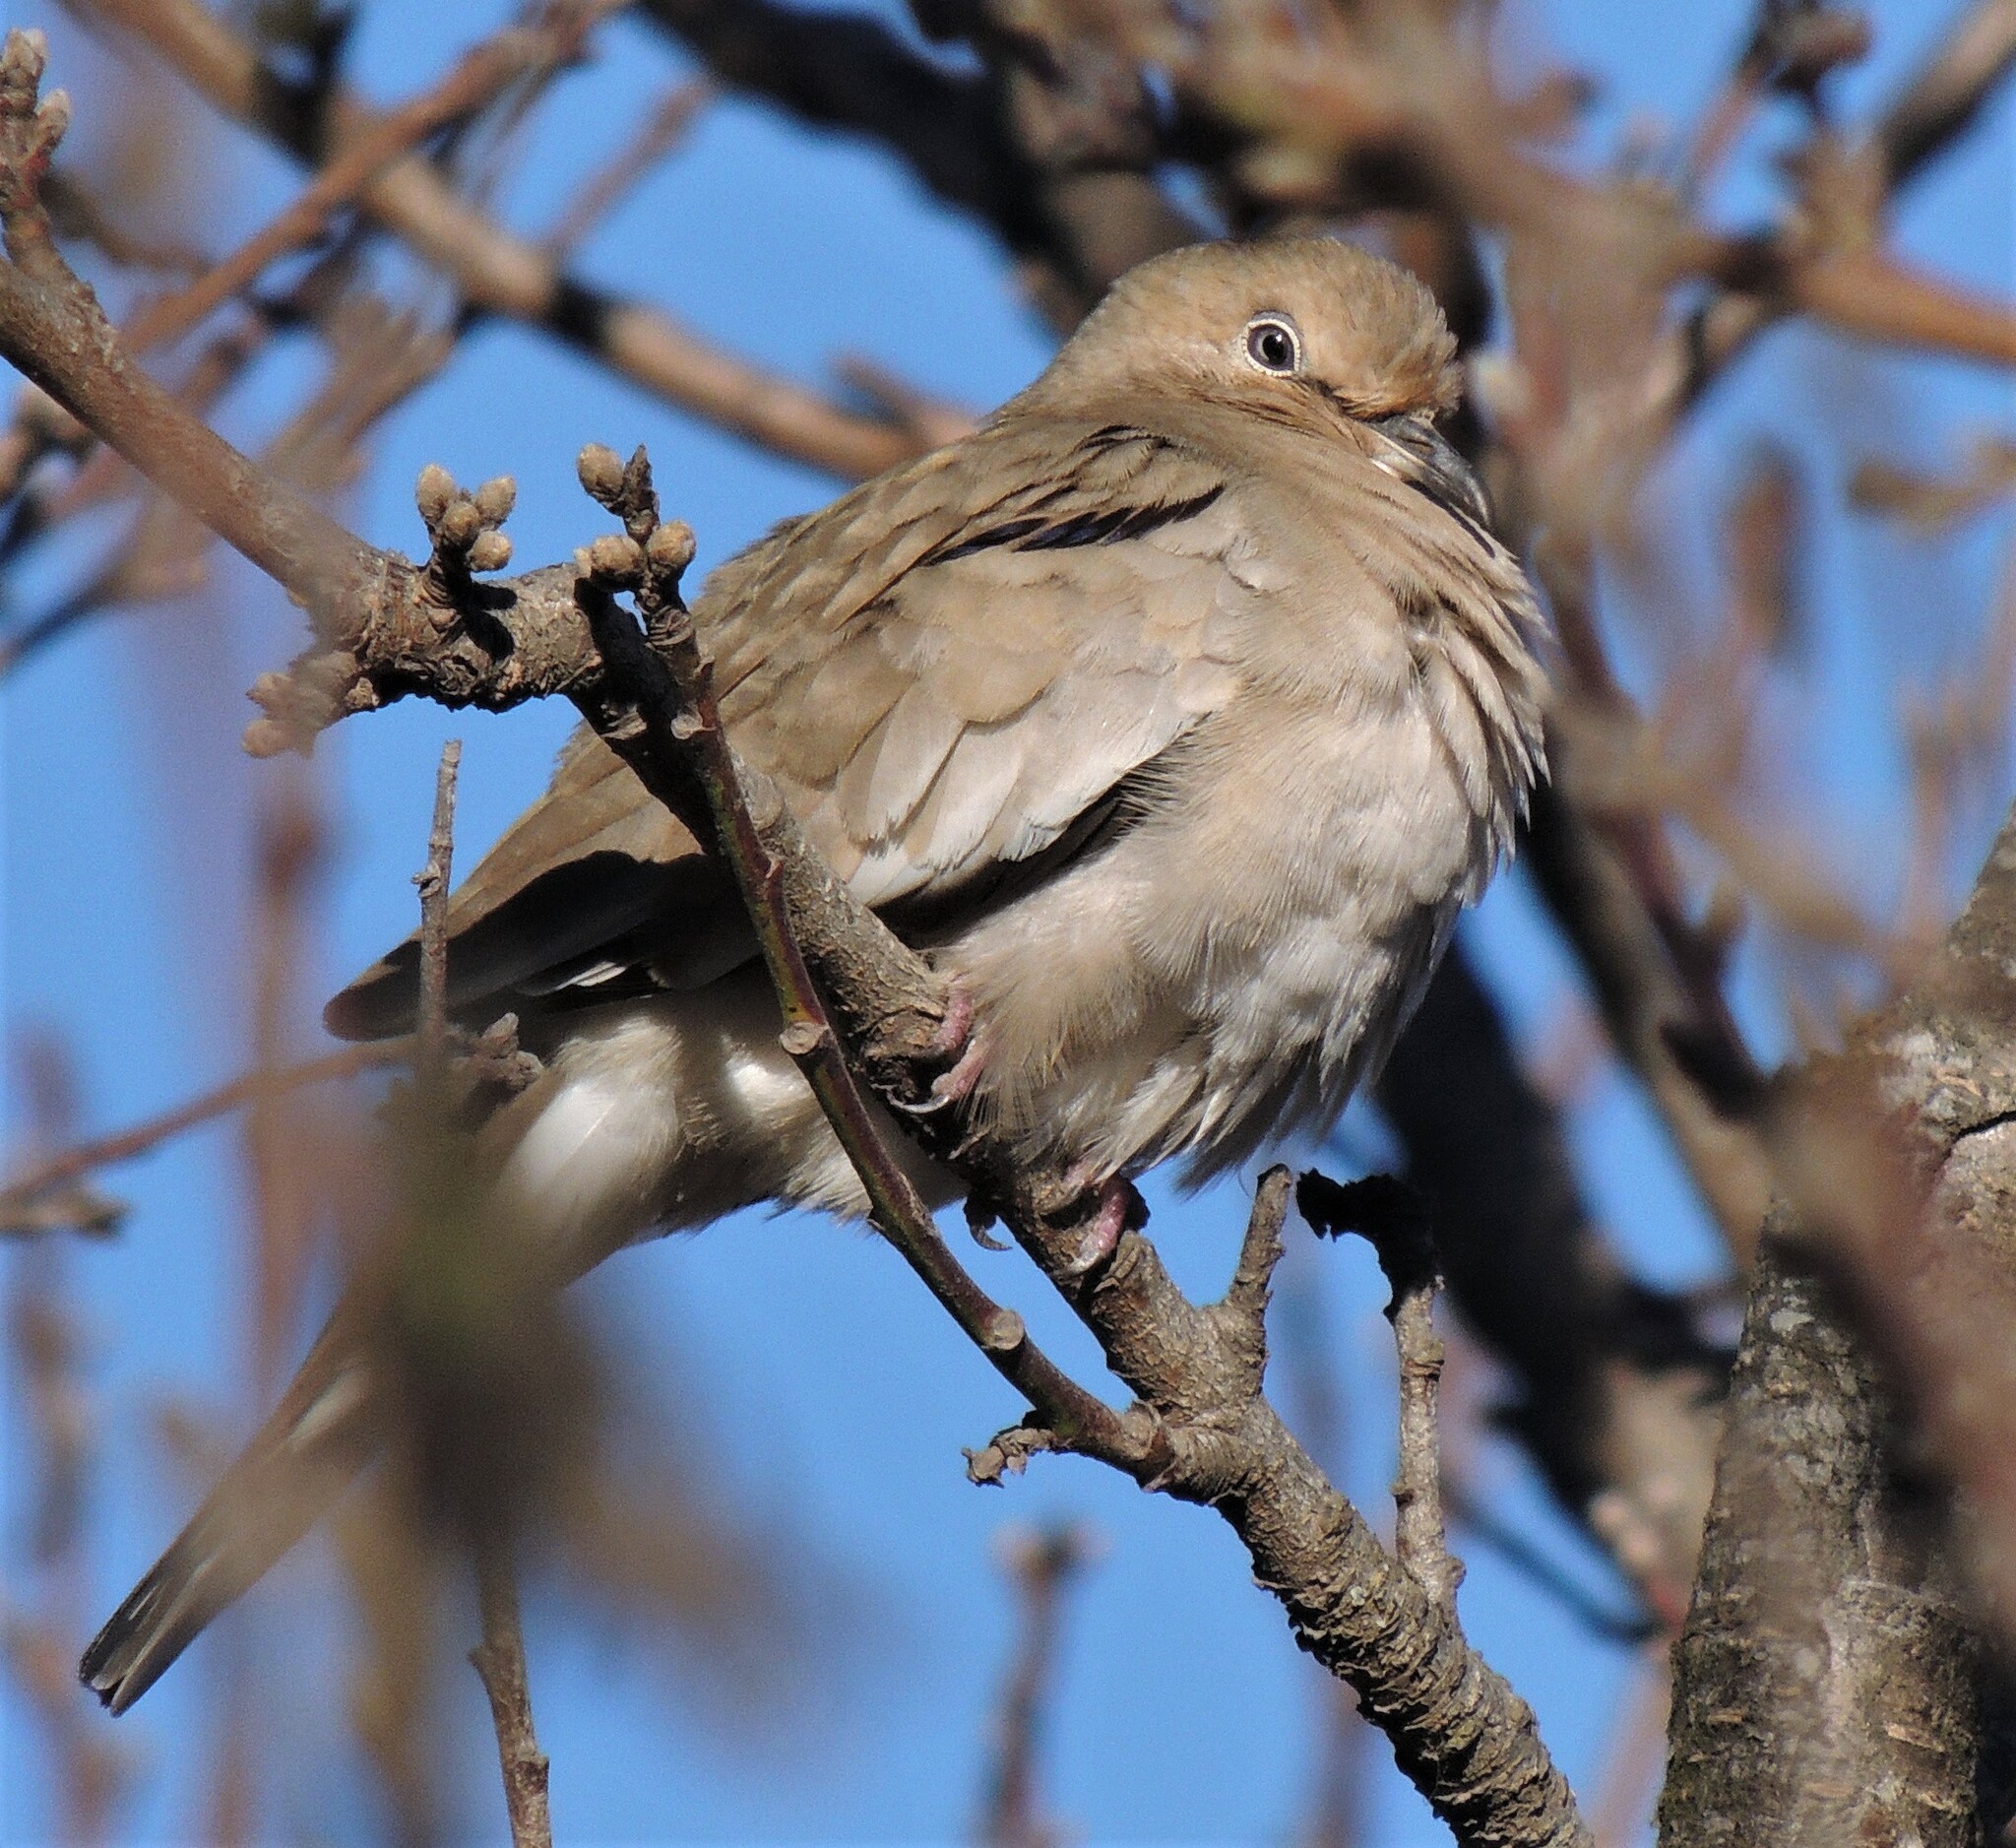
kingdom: Animalia
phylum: Chordata
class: Aves
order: Columbiformes
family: Columbidae
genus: Columbina
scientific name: Columbina picui
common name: Picui ground dove
